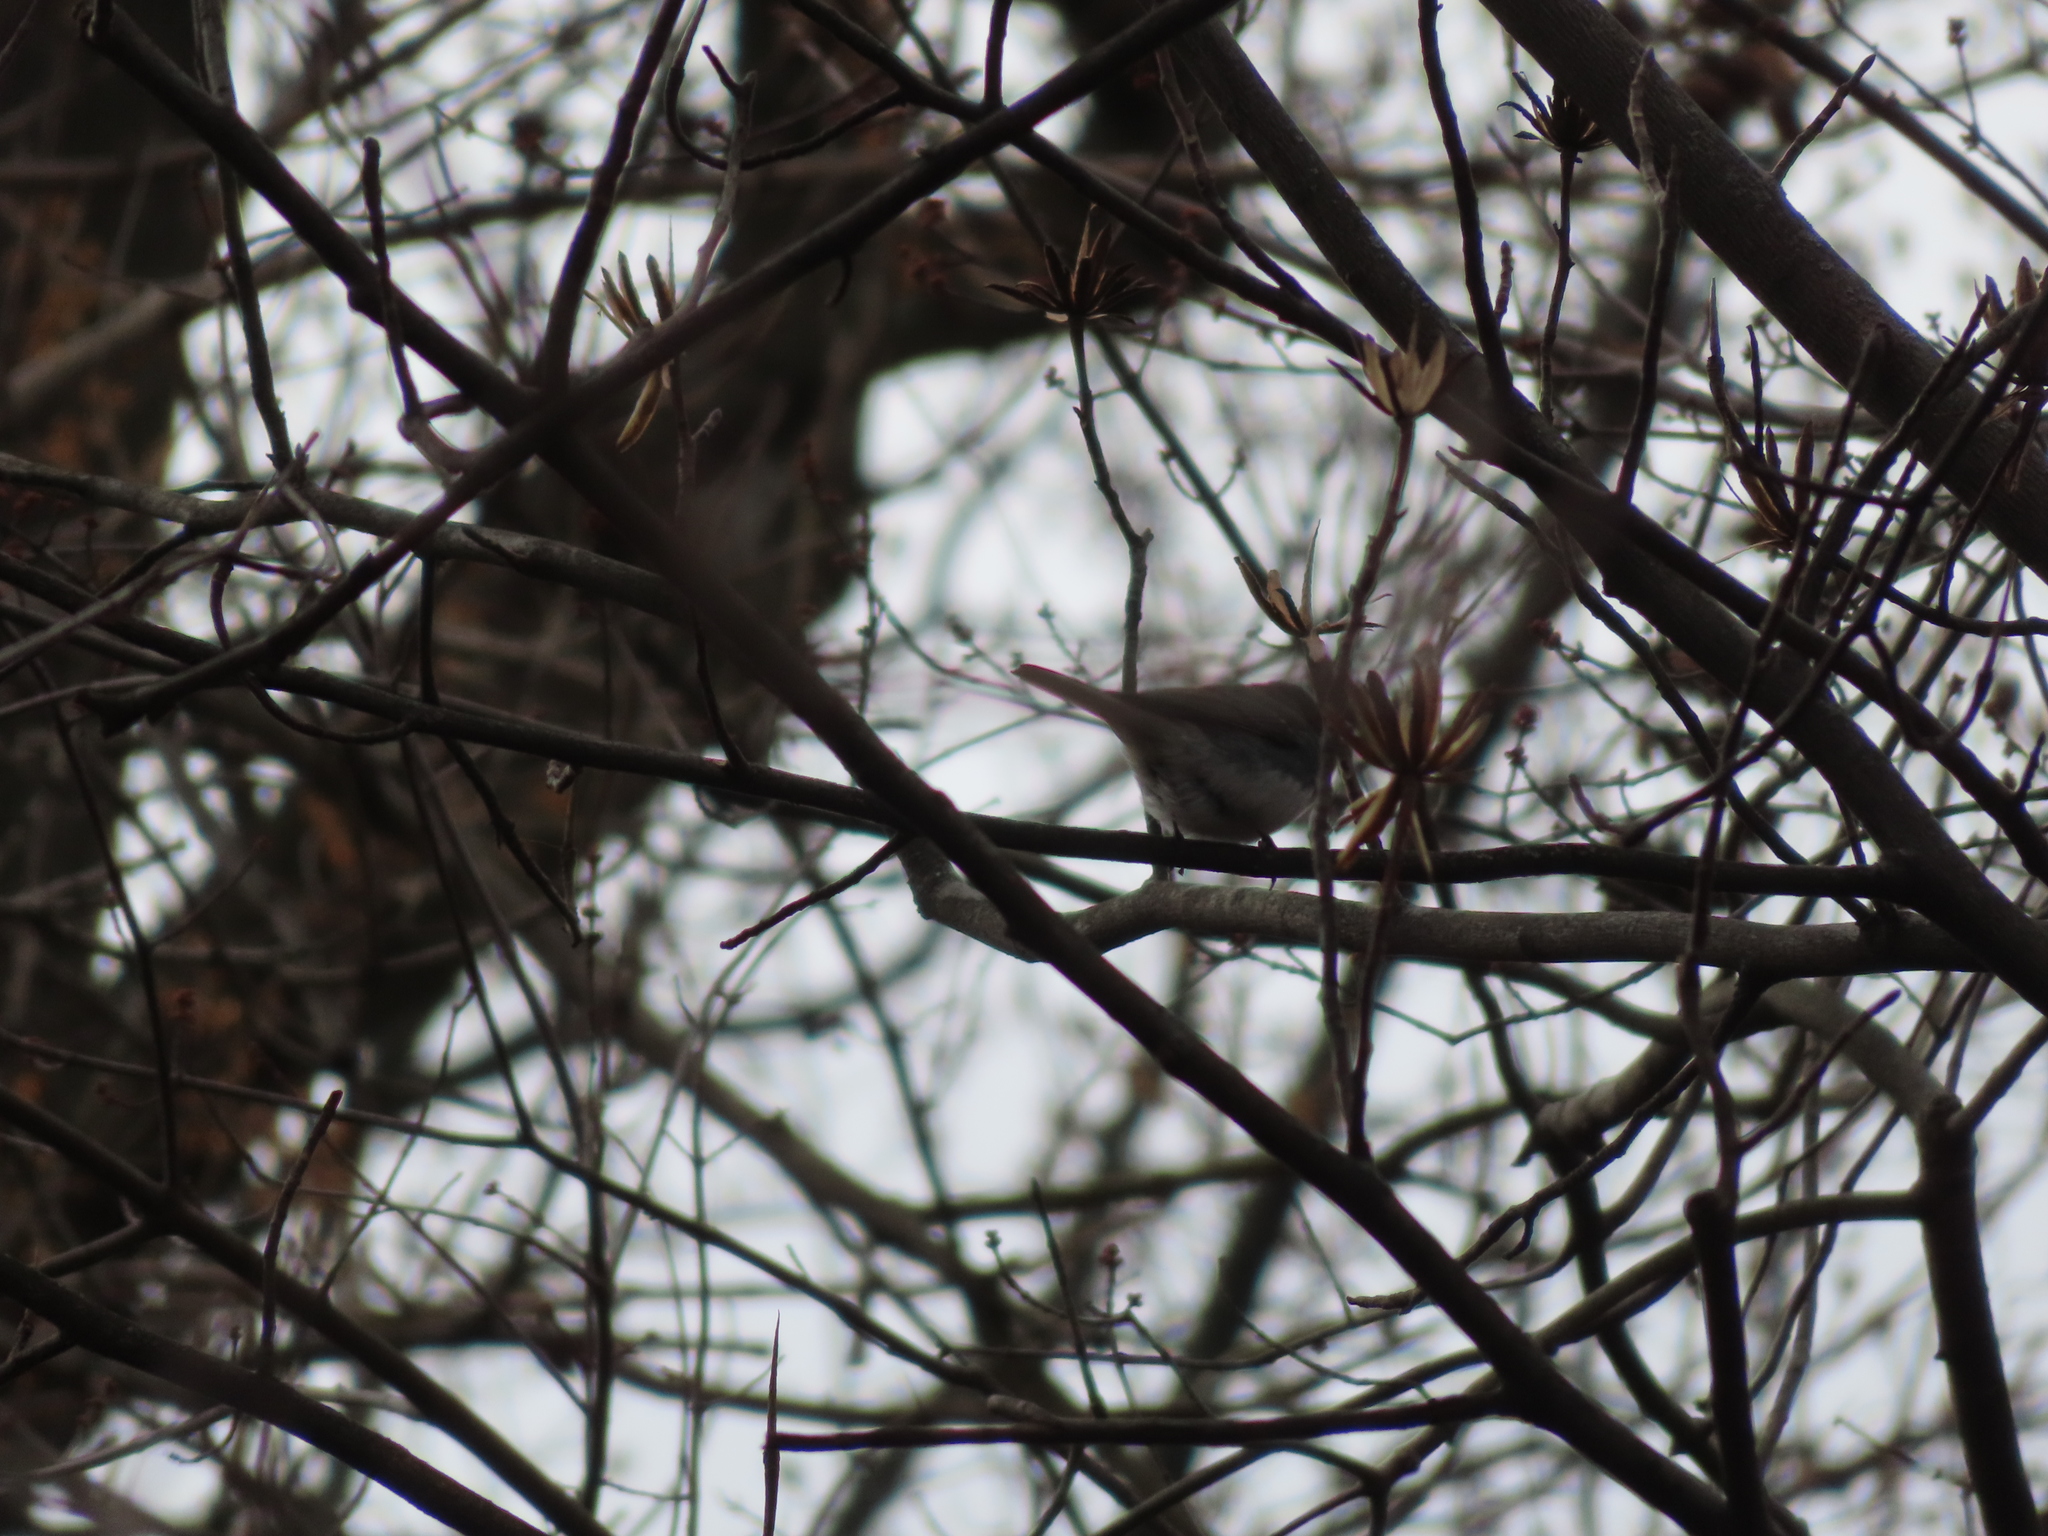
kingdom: Animalia
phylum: Chordata
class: Aves
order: Passeriformes
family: Passerellidae
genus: Junco
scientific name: Junco hyemalis
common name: Dark-eyed junco
